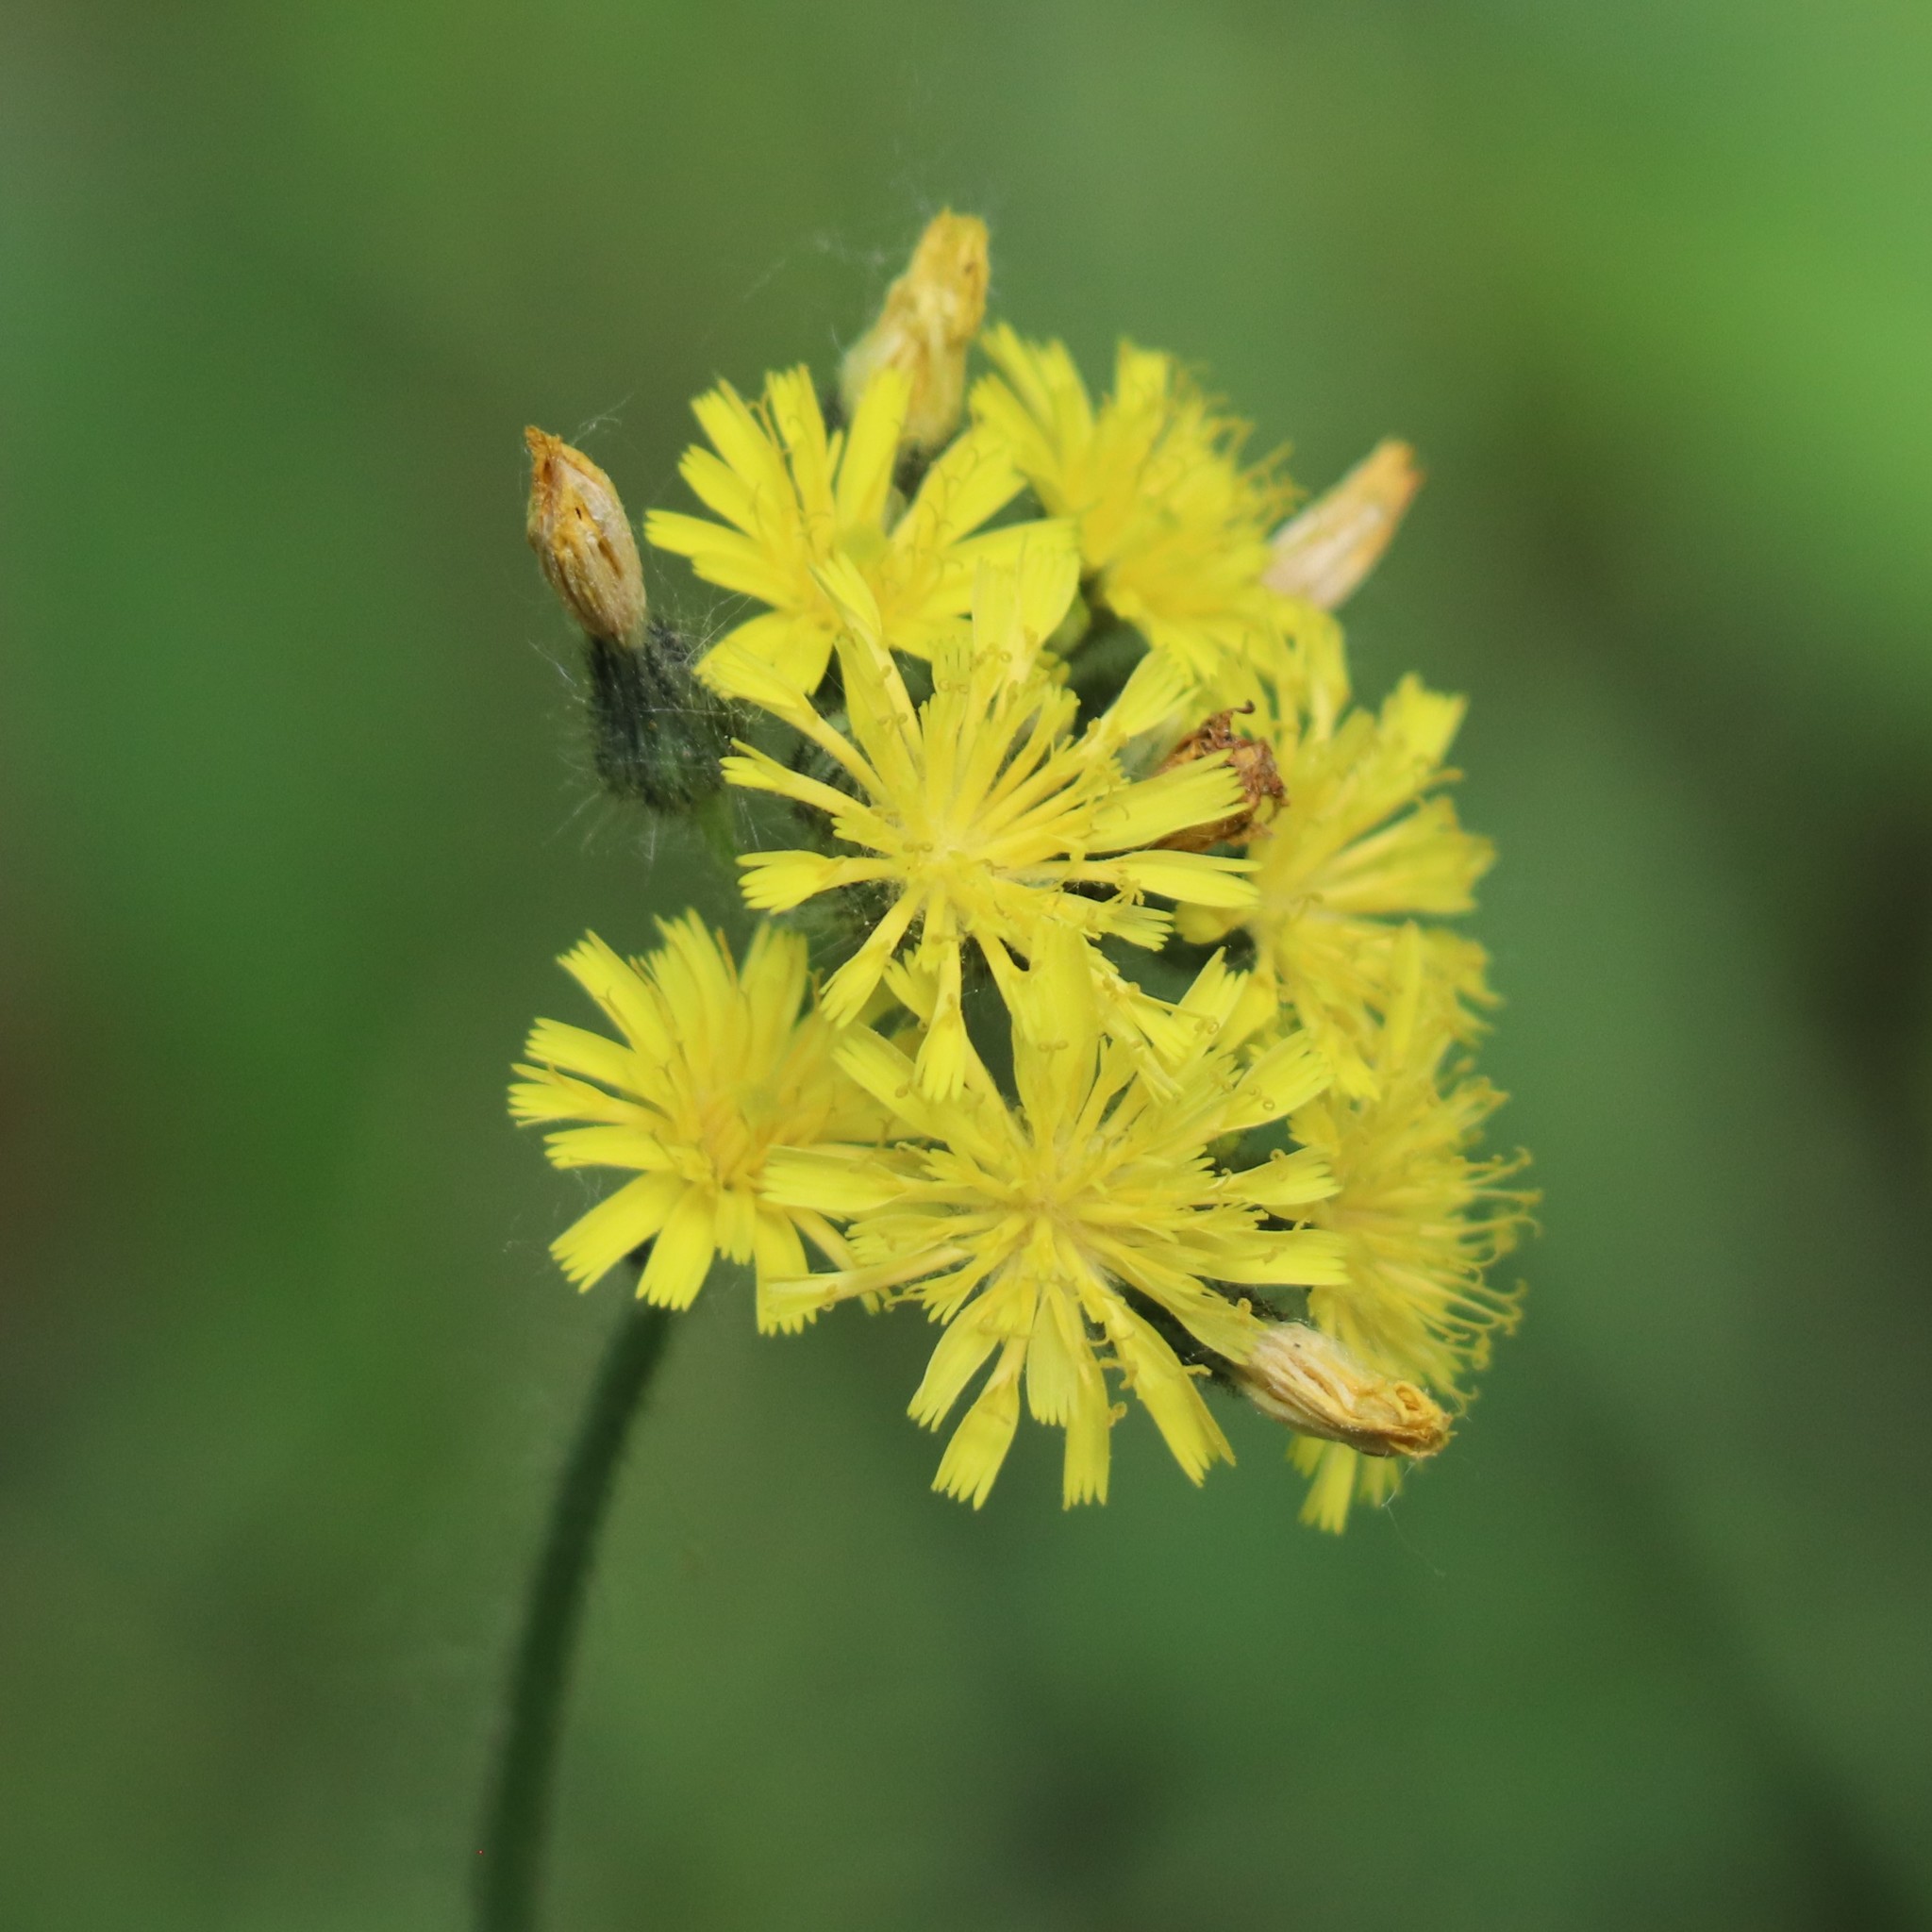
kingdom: Plantae
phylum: Tracheophyta
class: Magnoliopsida
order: Asterales
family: Asteraceae
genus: Pilosella
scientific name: Pilosella caespitosa
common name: Yellow fox-and-cubs
